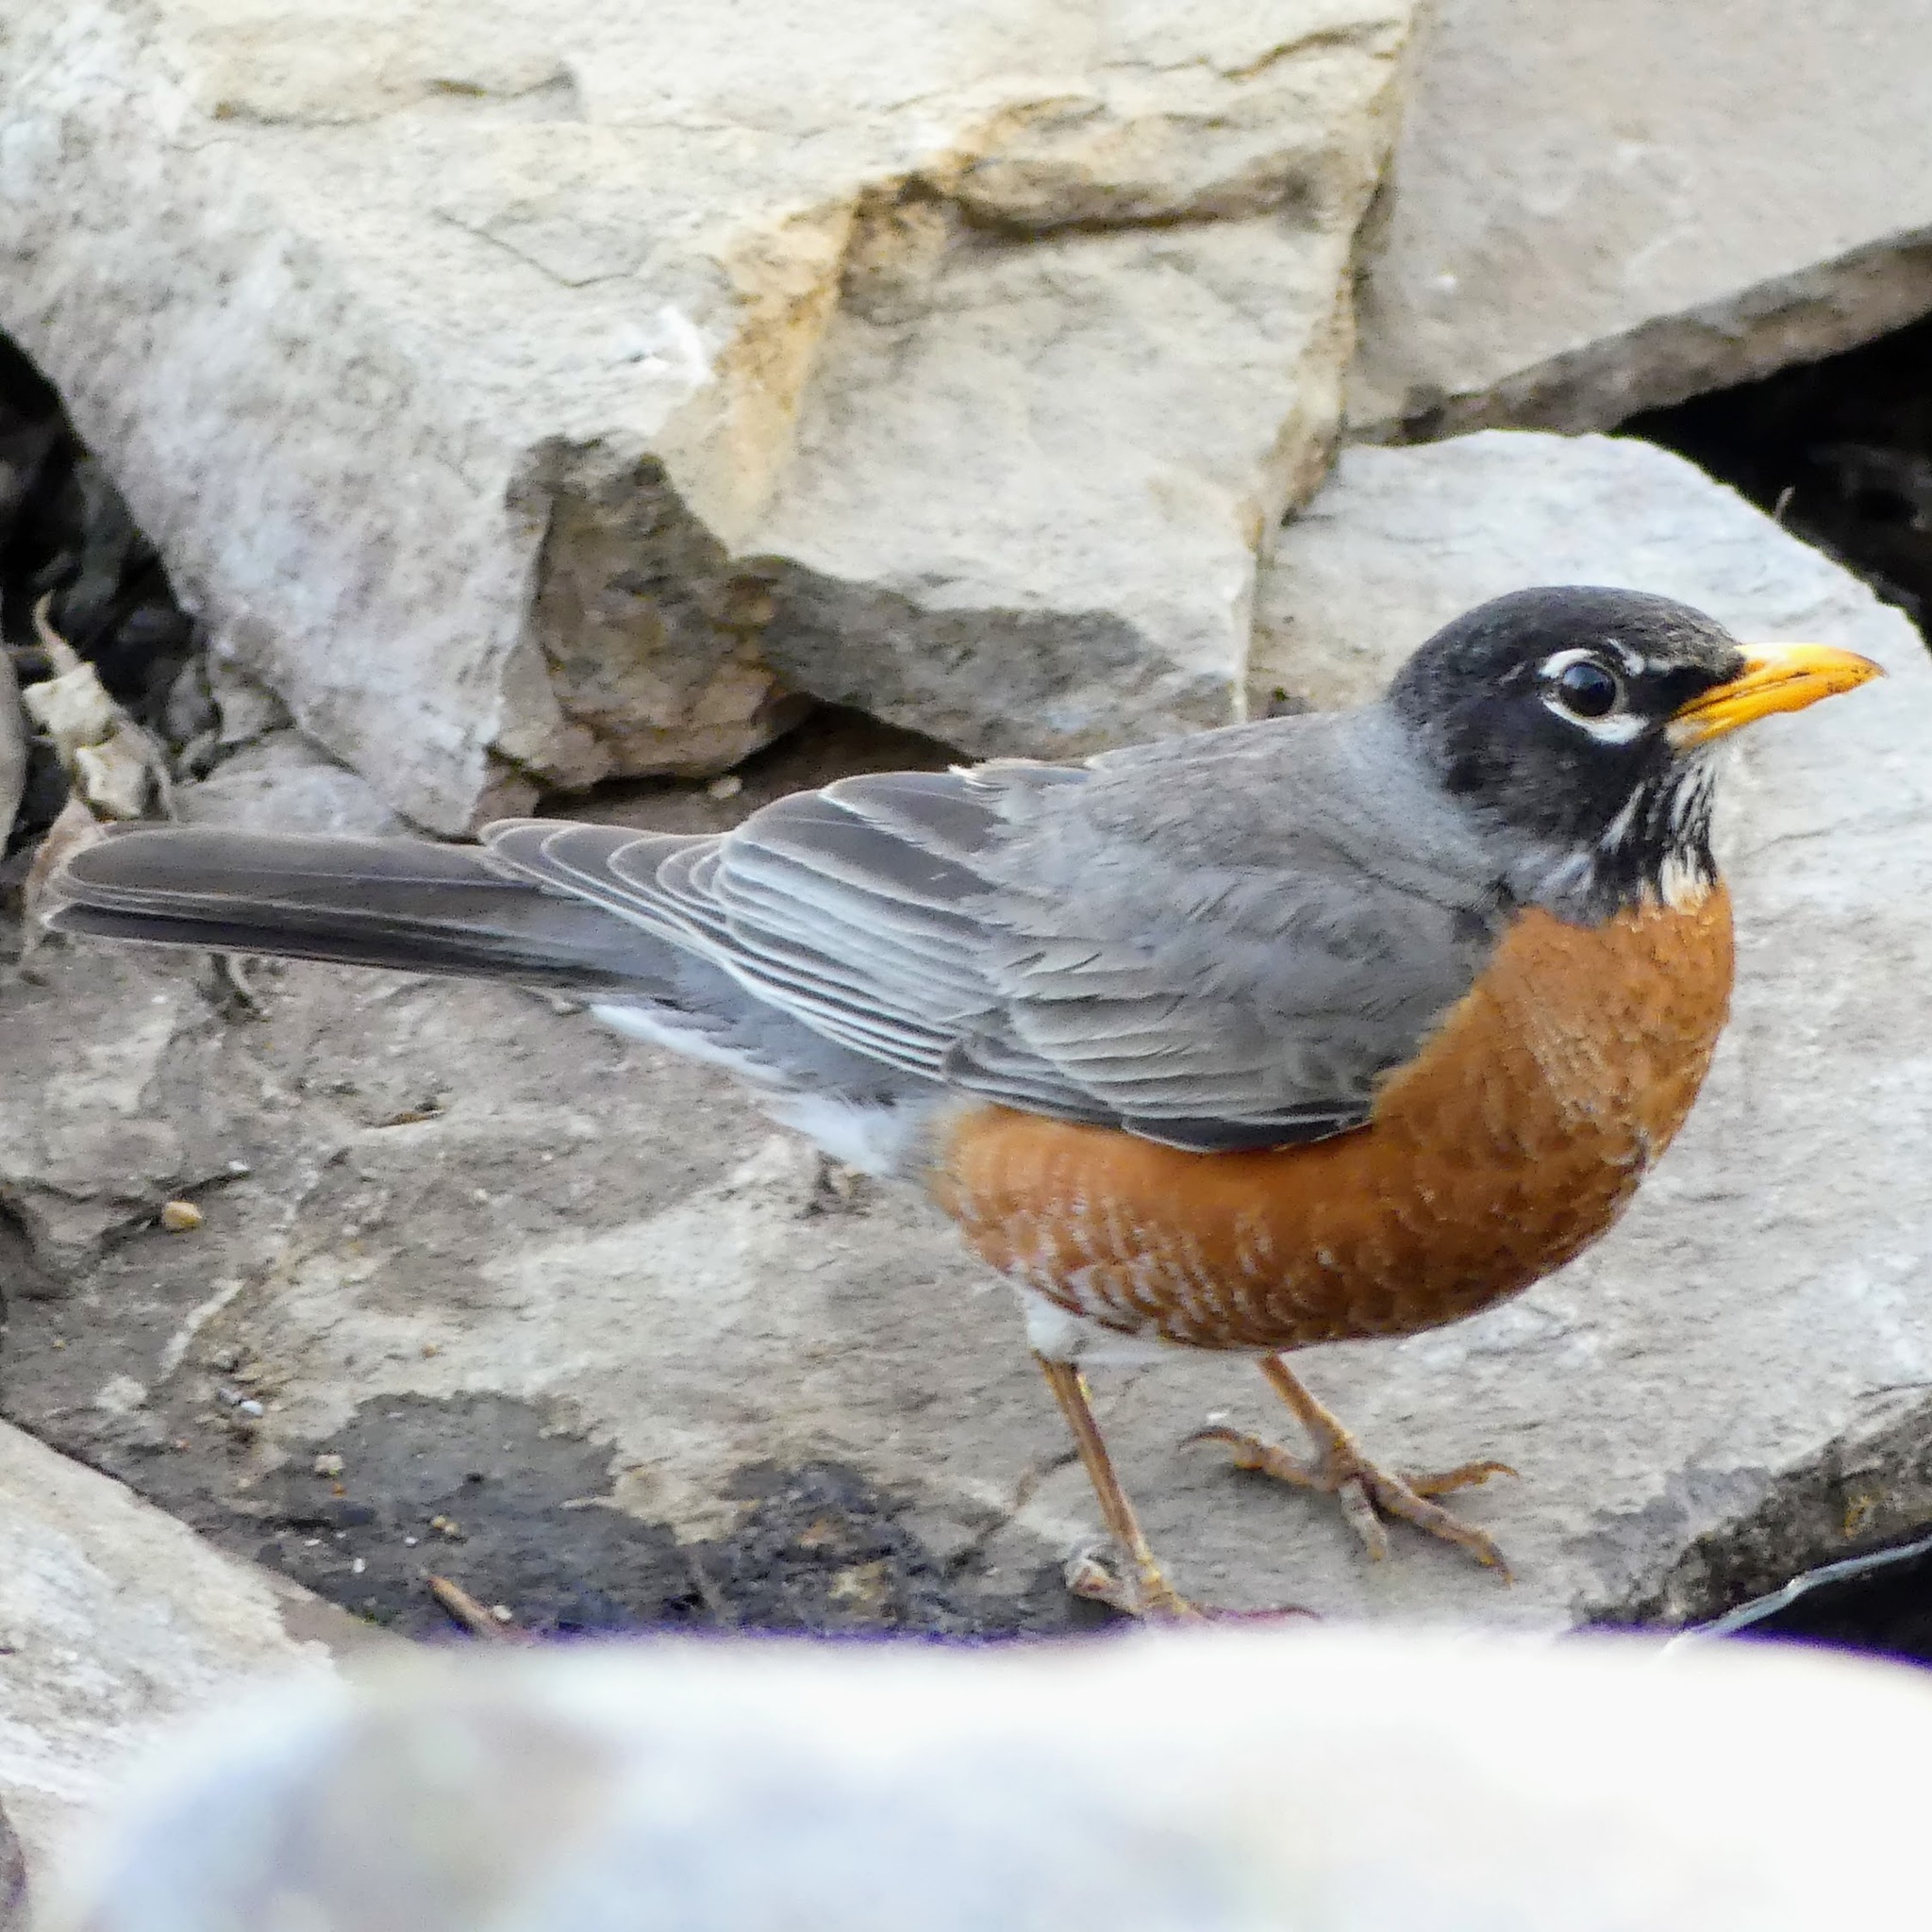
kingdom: Animalia
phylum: Chordata
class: Aves
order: Passeriformes
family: Turdidae
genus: Turdus
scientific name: Turdus migratorius
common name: American robin
